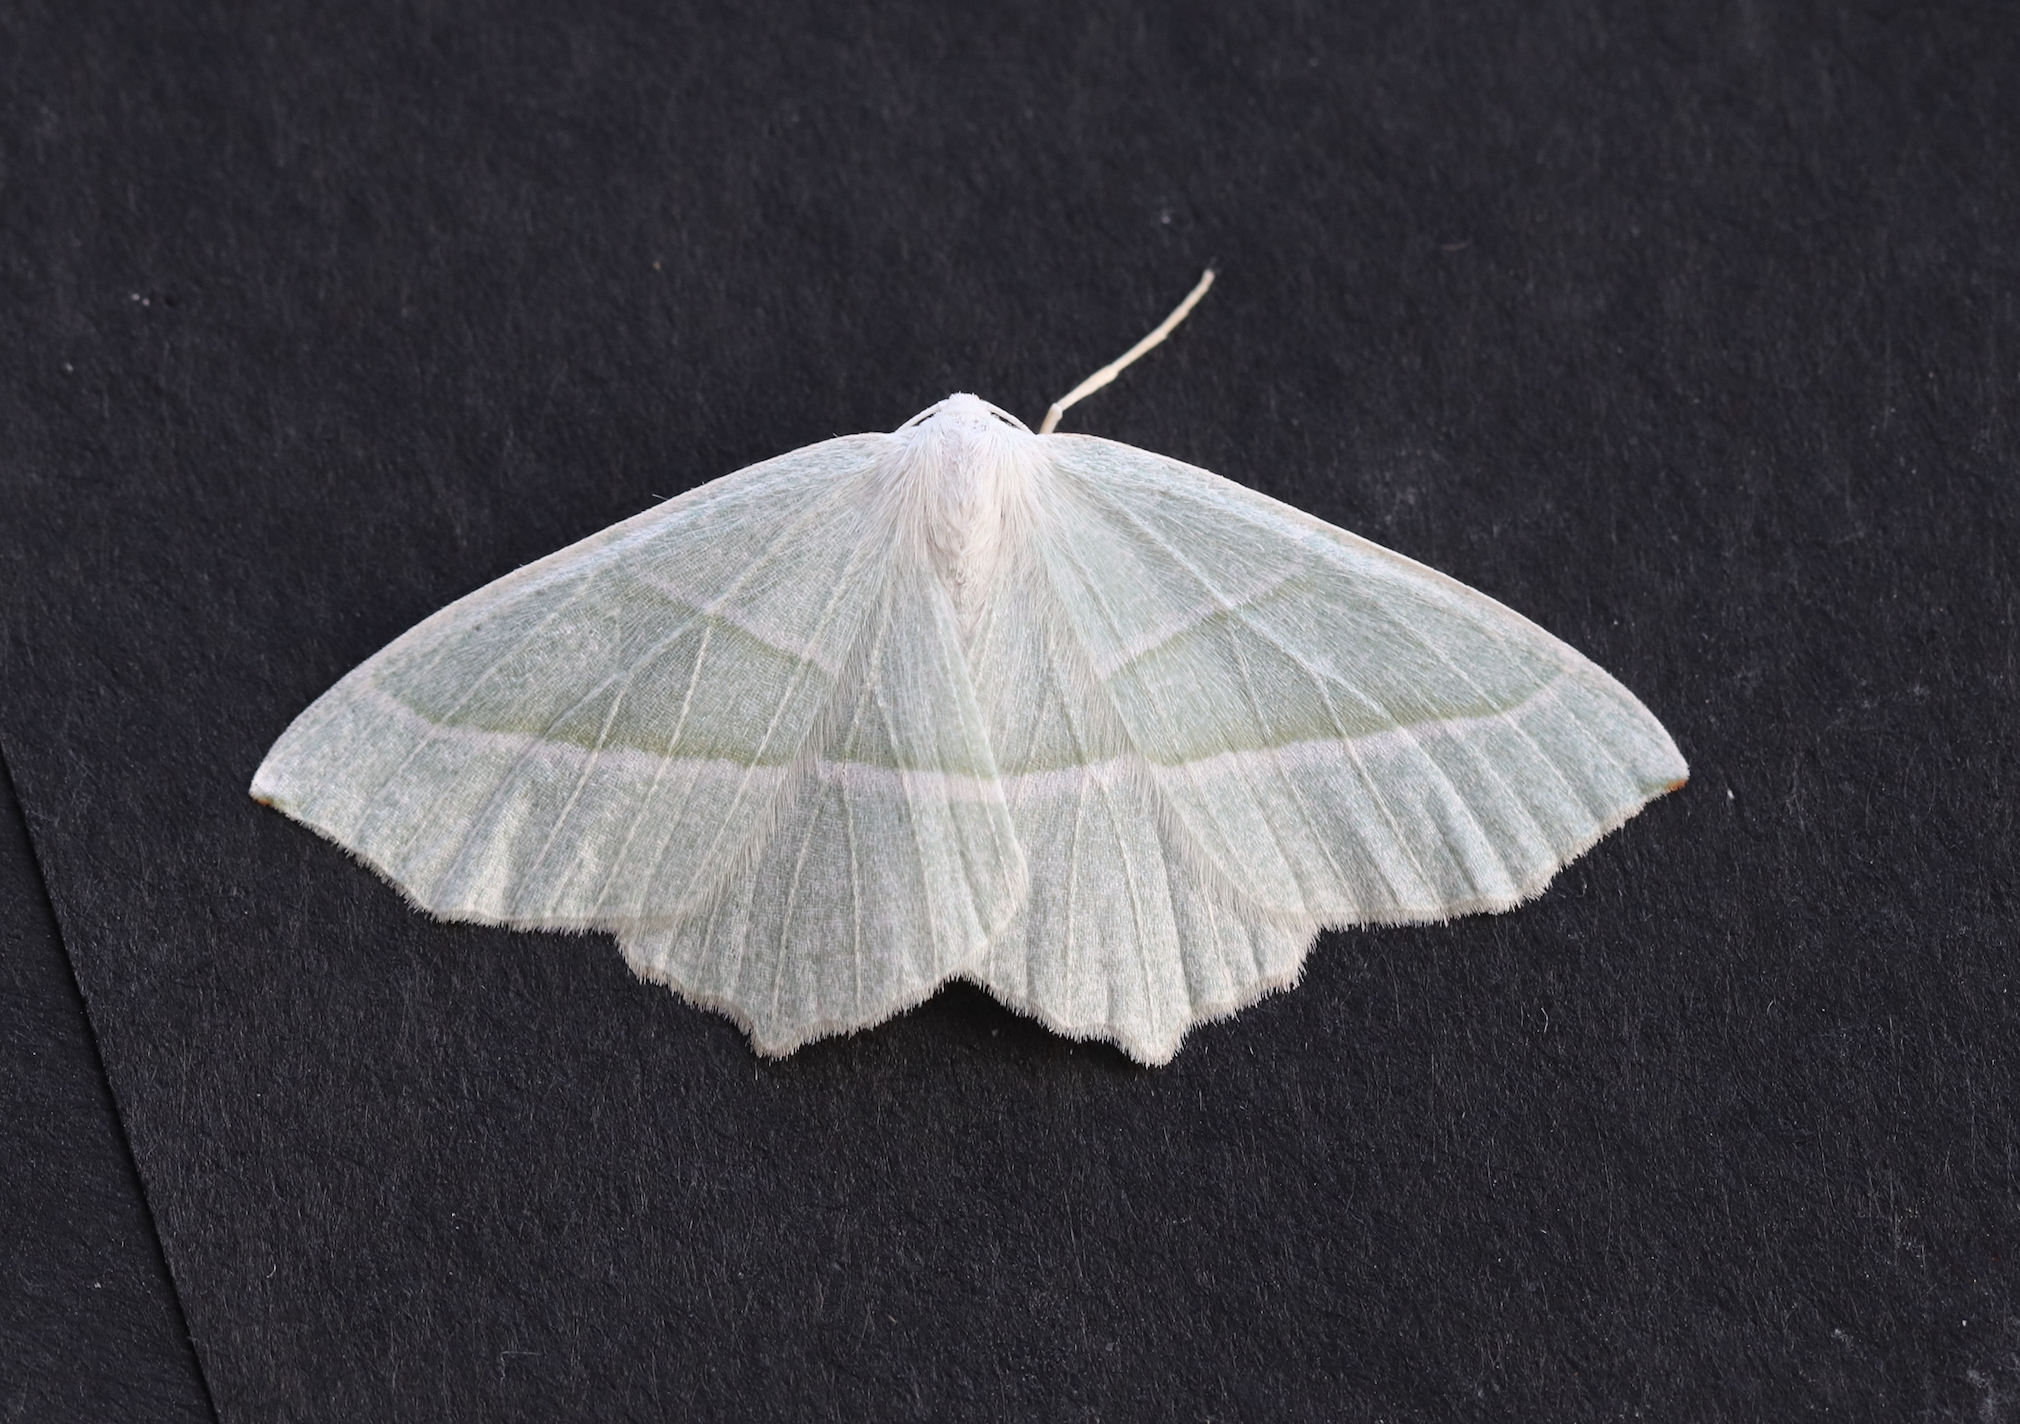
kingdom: Animalia
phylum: Arthropoda
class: Insecta
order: Lepidoptera
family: Geometridae
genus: Campaea
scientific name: Campaea margaritaria
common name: Light emerald
